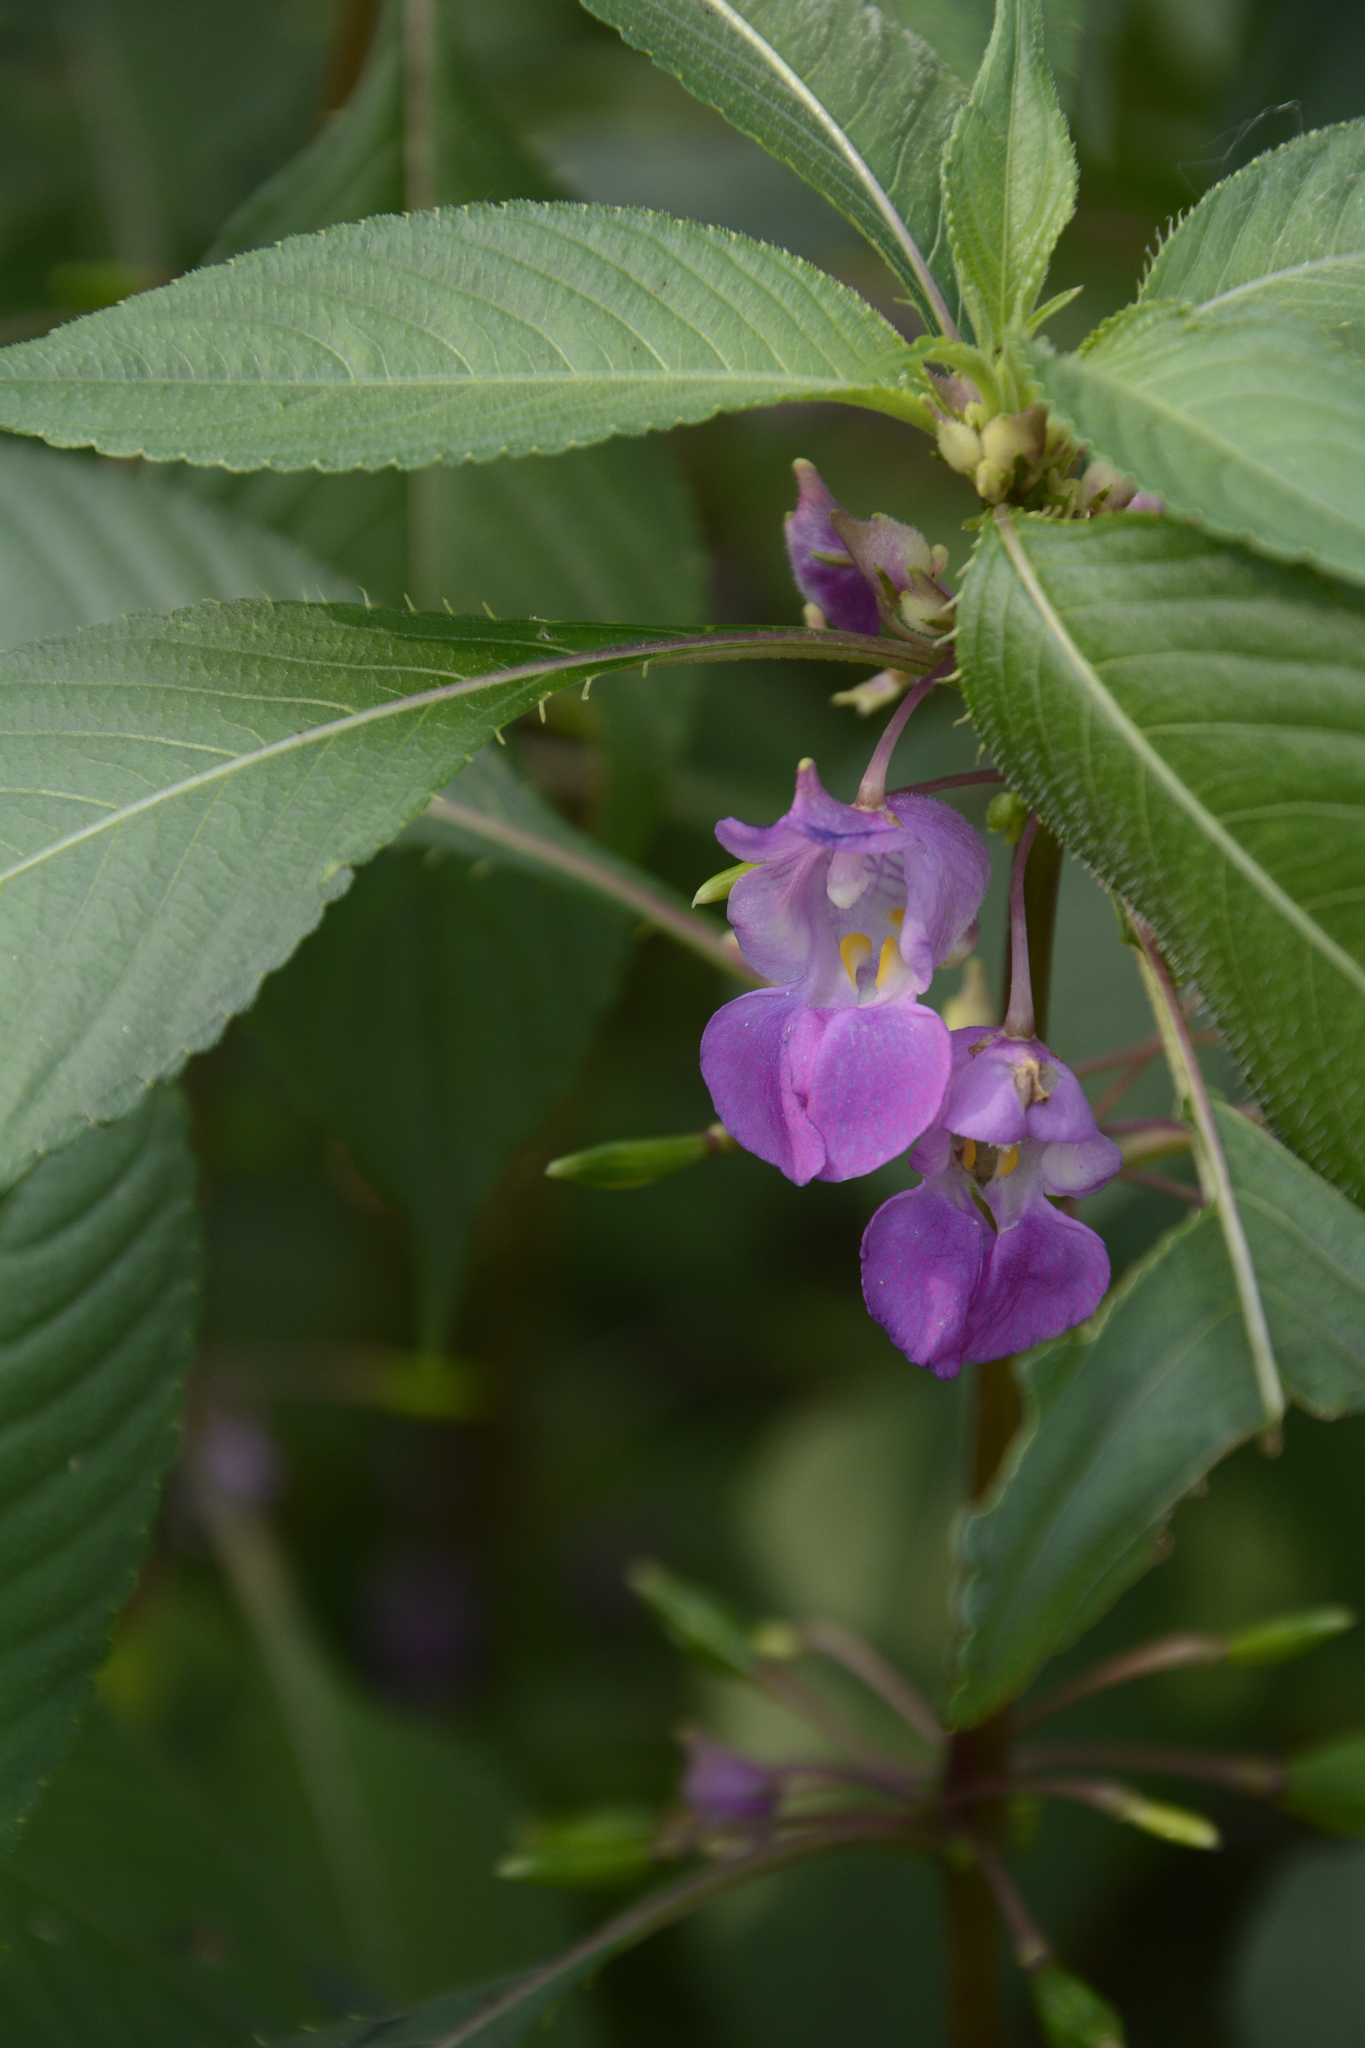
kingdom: Plantae
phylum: Tracheophyta
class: Magnoliopsida
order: Ericales
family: Balsaminaceae
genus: Impatiens
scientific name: Impatiens tripetala
